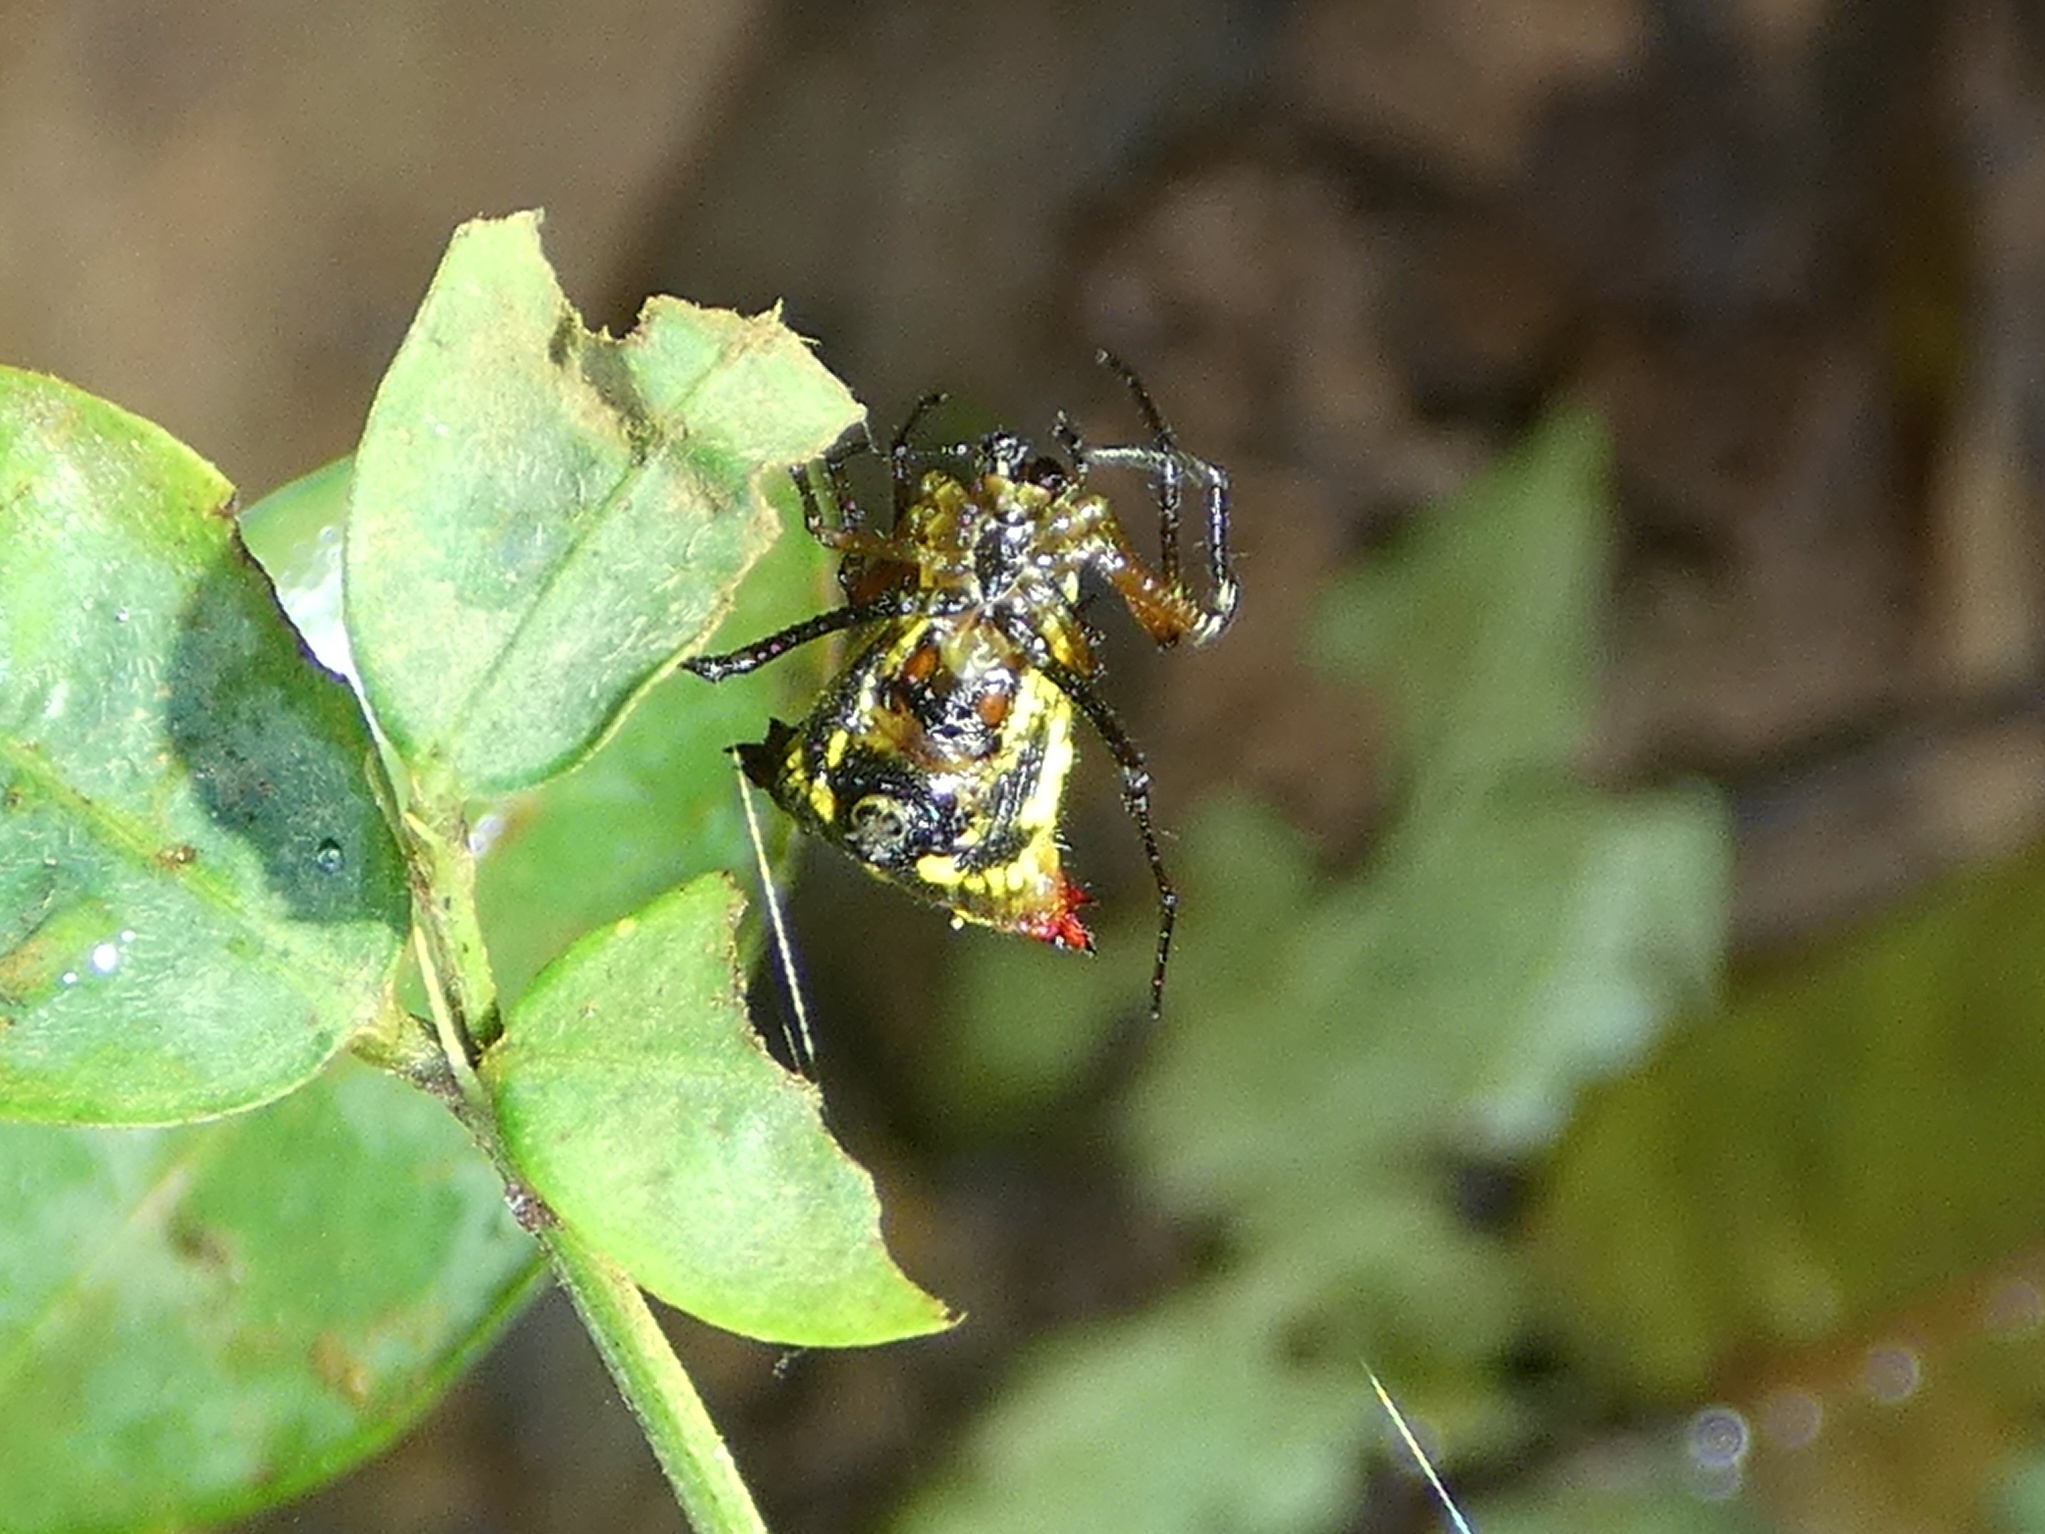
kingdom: Animalia
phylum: Arthropoda
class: Arachnida
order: Araneae
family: Araneidae
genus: Micrathena
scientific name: Micrathena duodecimspinosa
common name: Orb weavers
